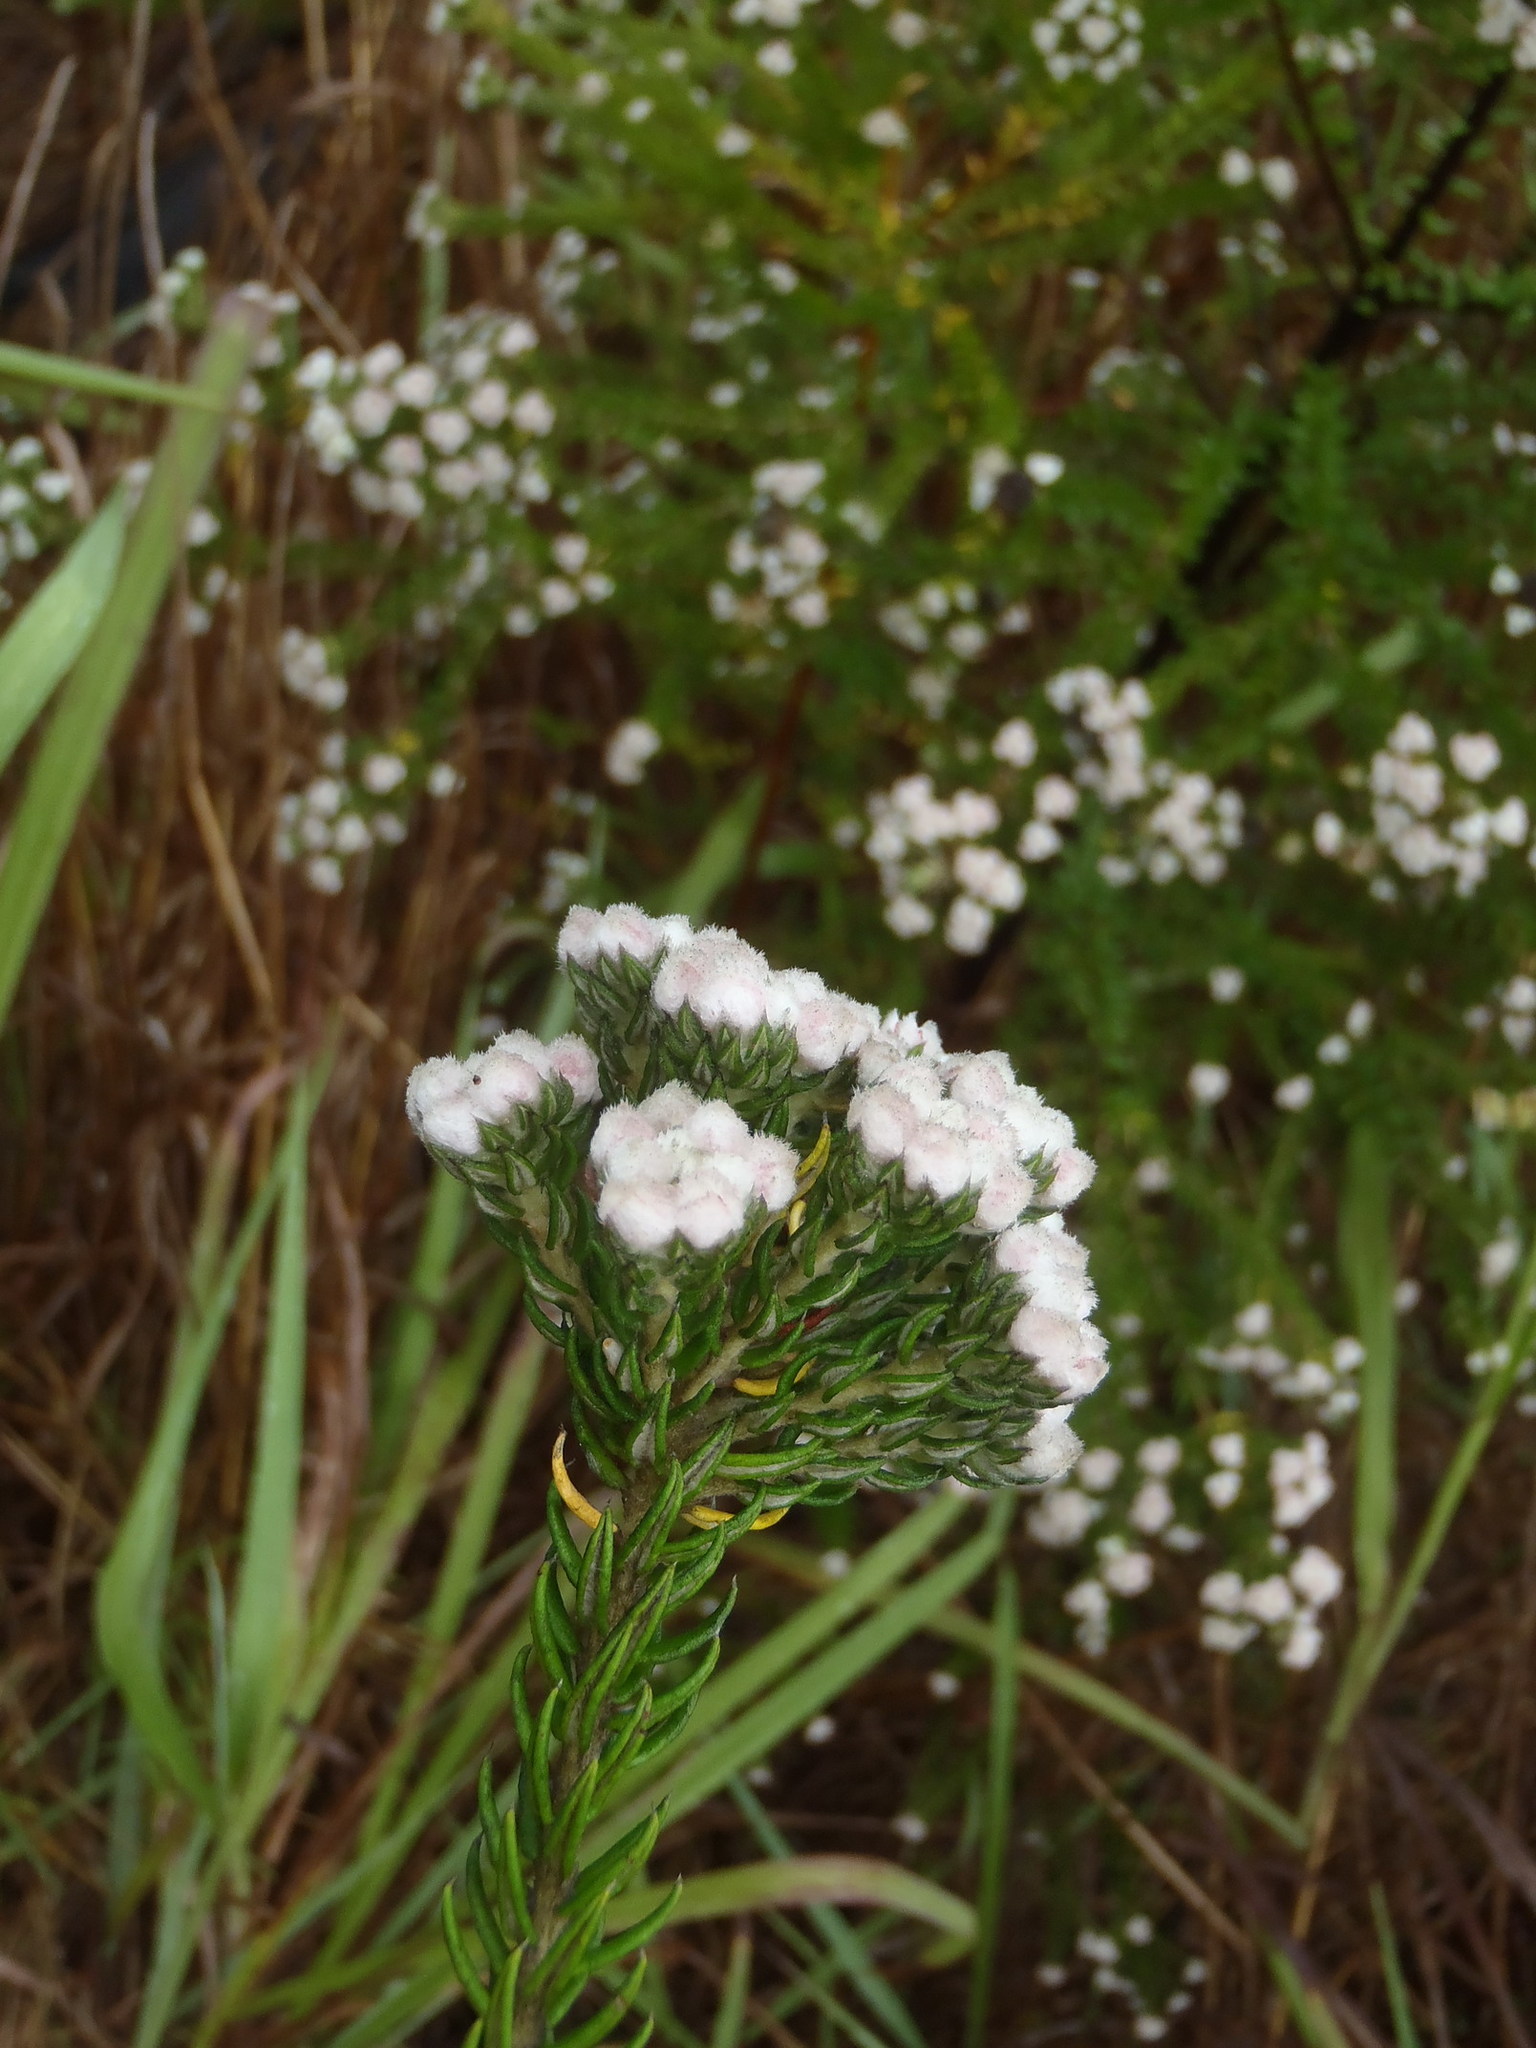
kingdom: Plantae
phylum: Tracheophyta
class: Magnoliopsida
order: Rosales
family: Rhamnaceae
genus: Phylica
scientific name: Phylica ericoides
